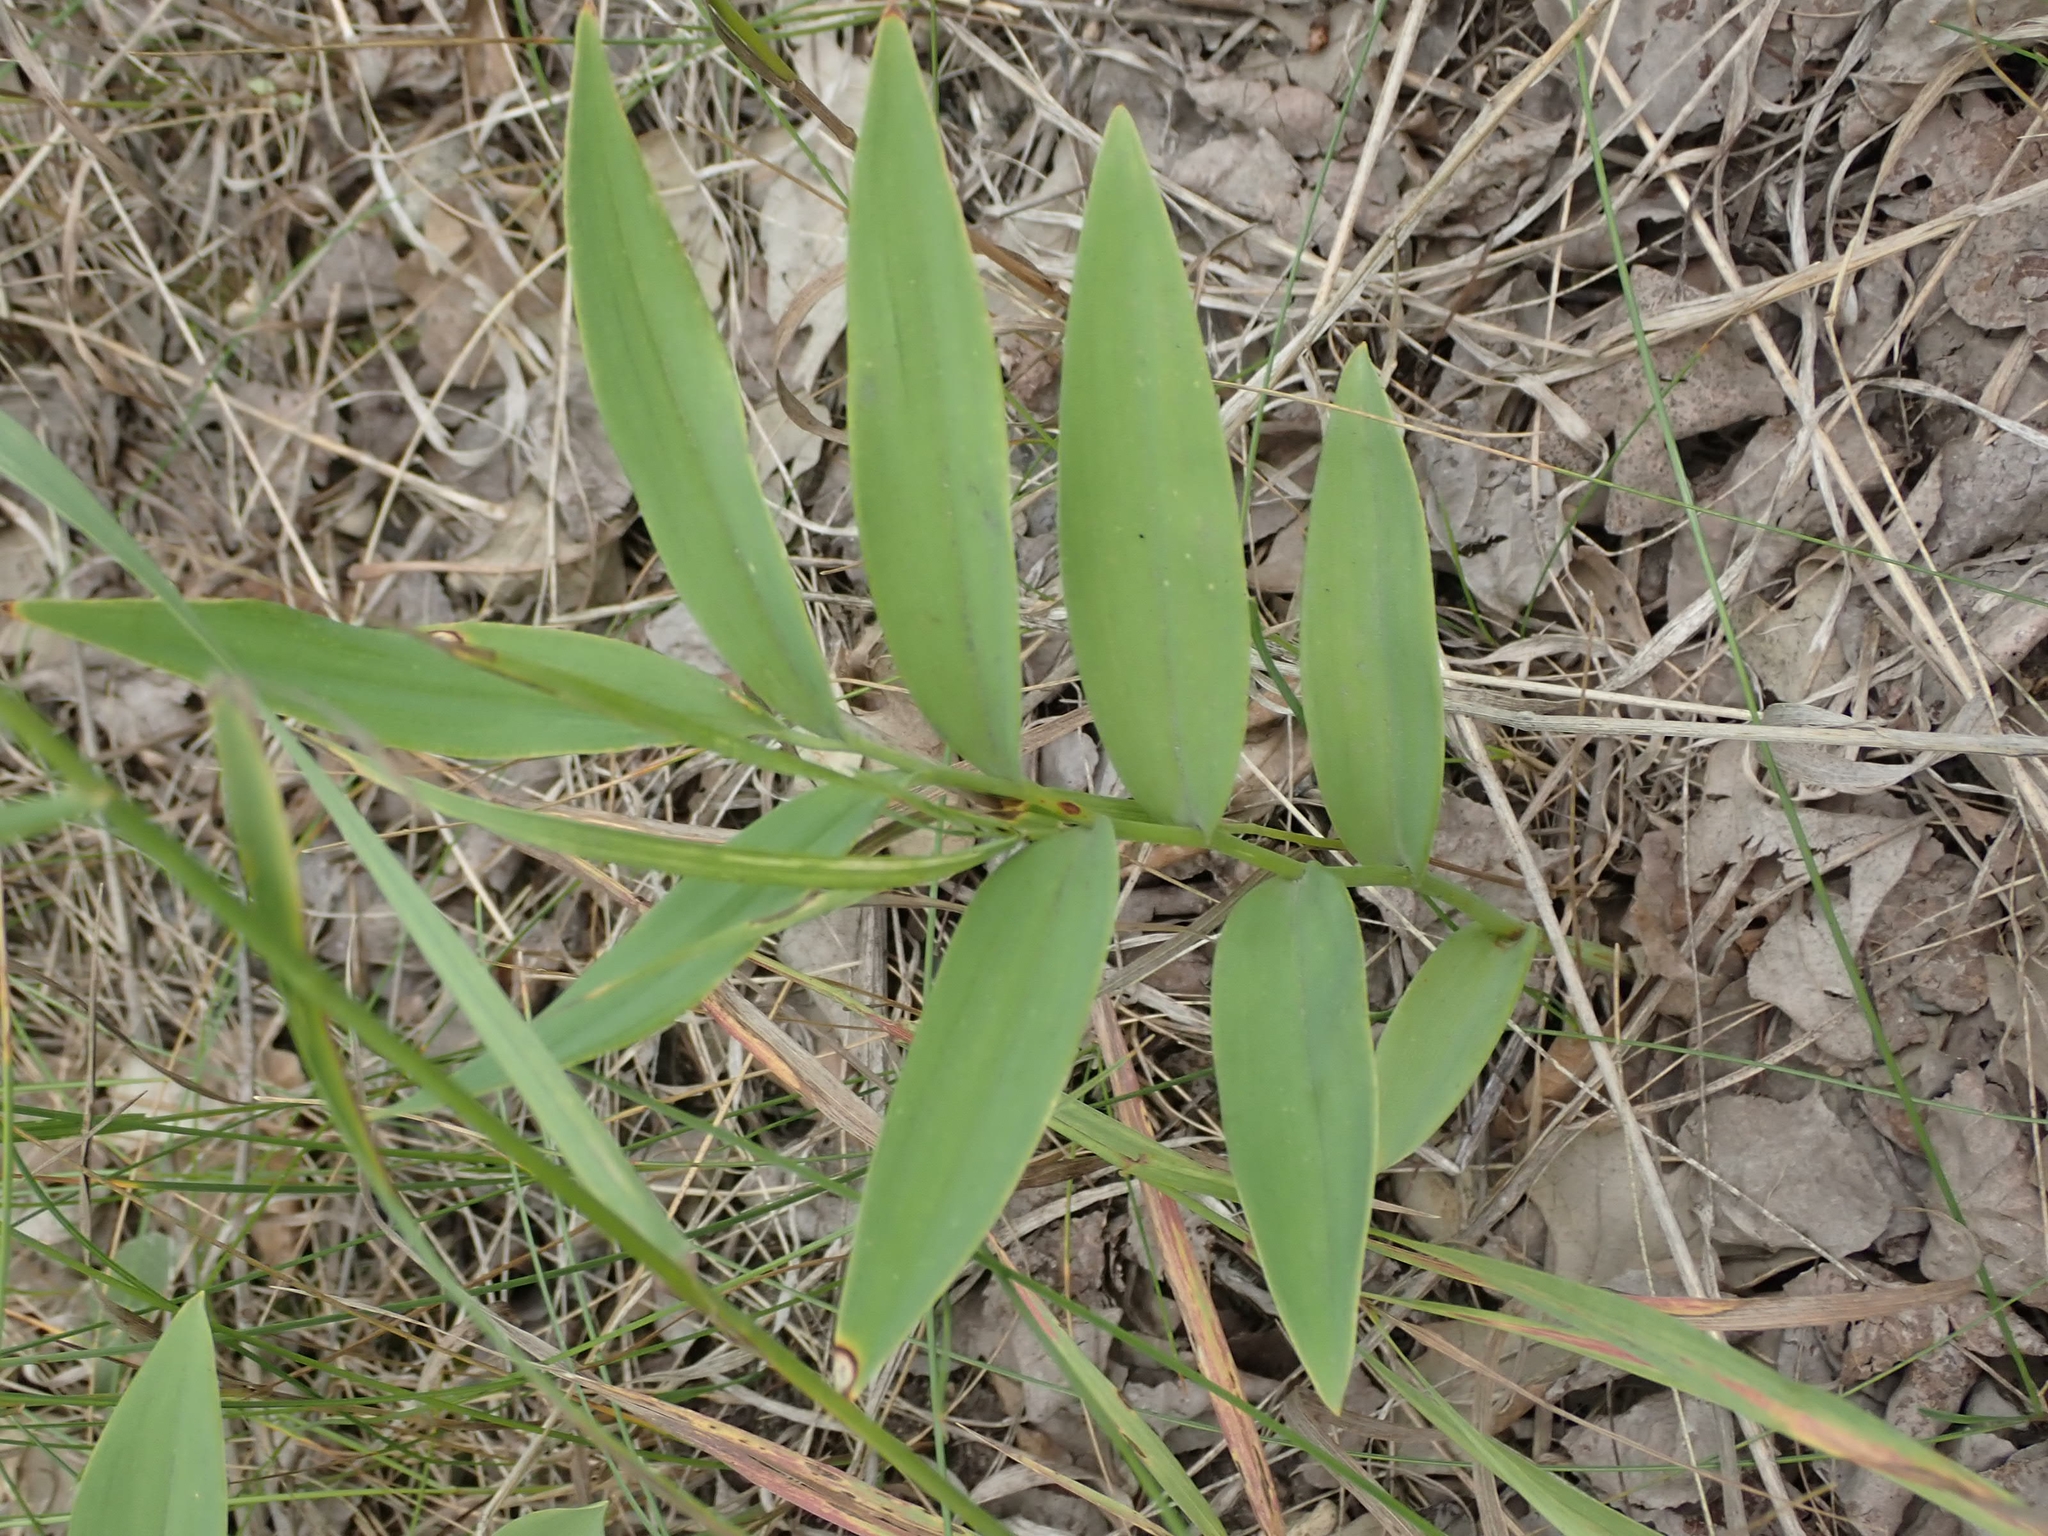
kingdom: Plantae
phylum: Tracheophyta
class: Liliopsida
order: Asparagales
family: Asparagaceae
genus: Maianthemum
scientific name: Maianthemum stellatum
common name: Little false solomon's seal
